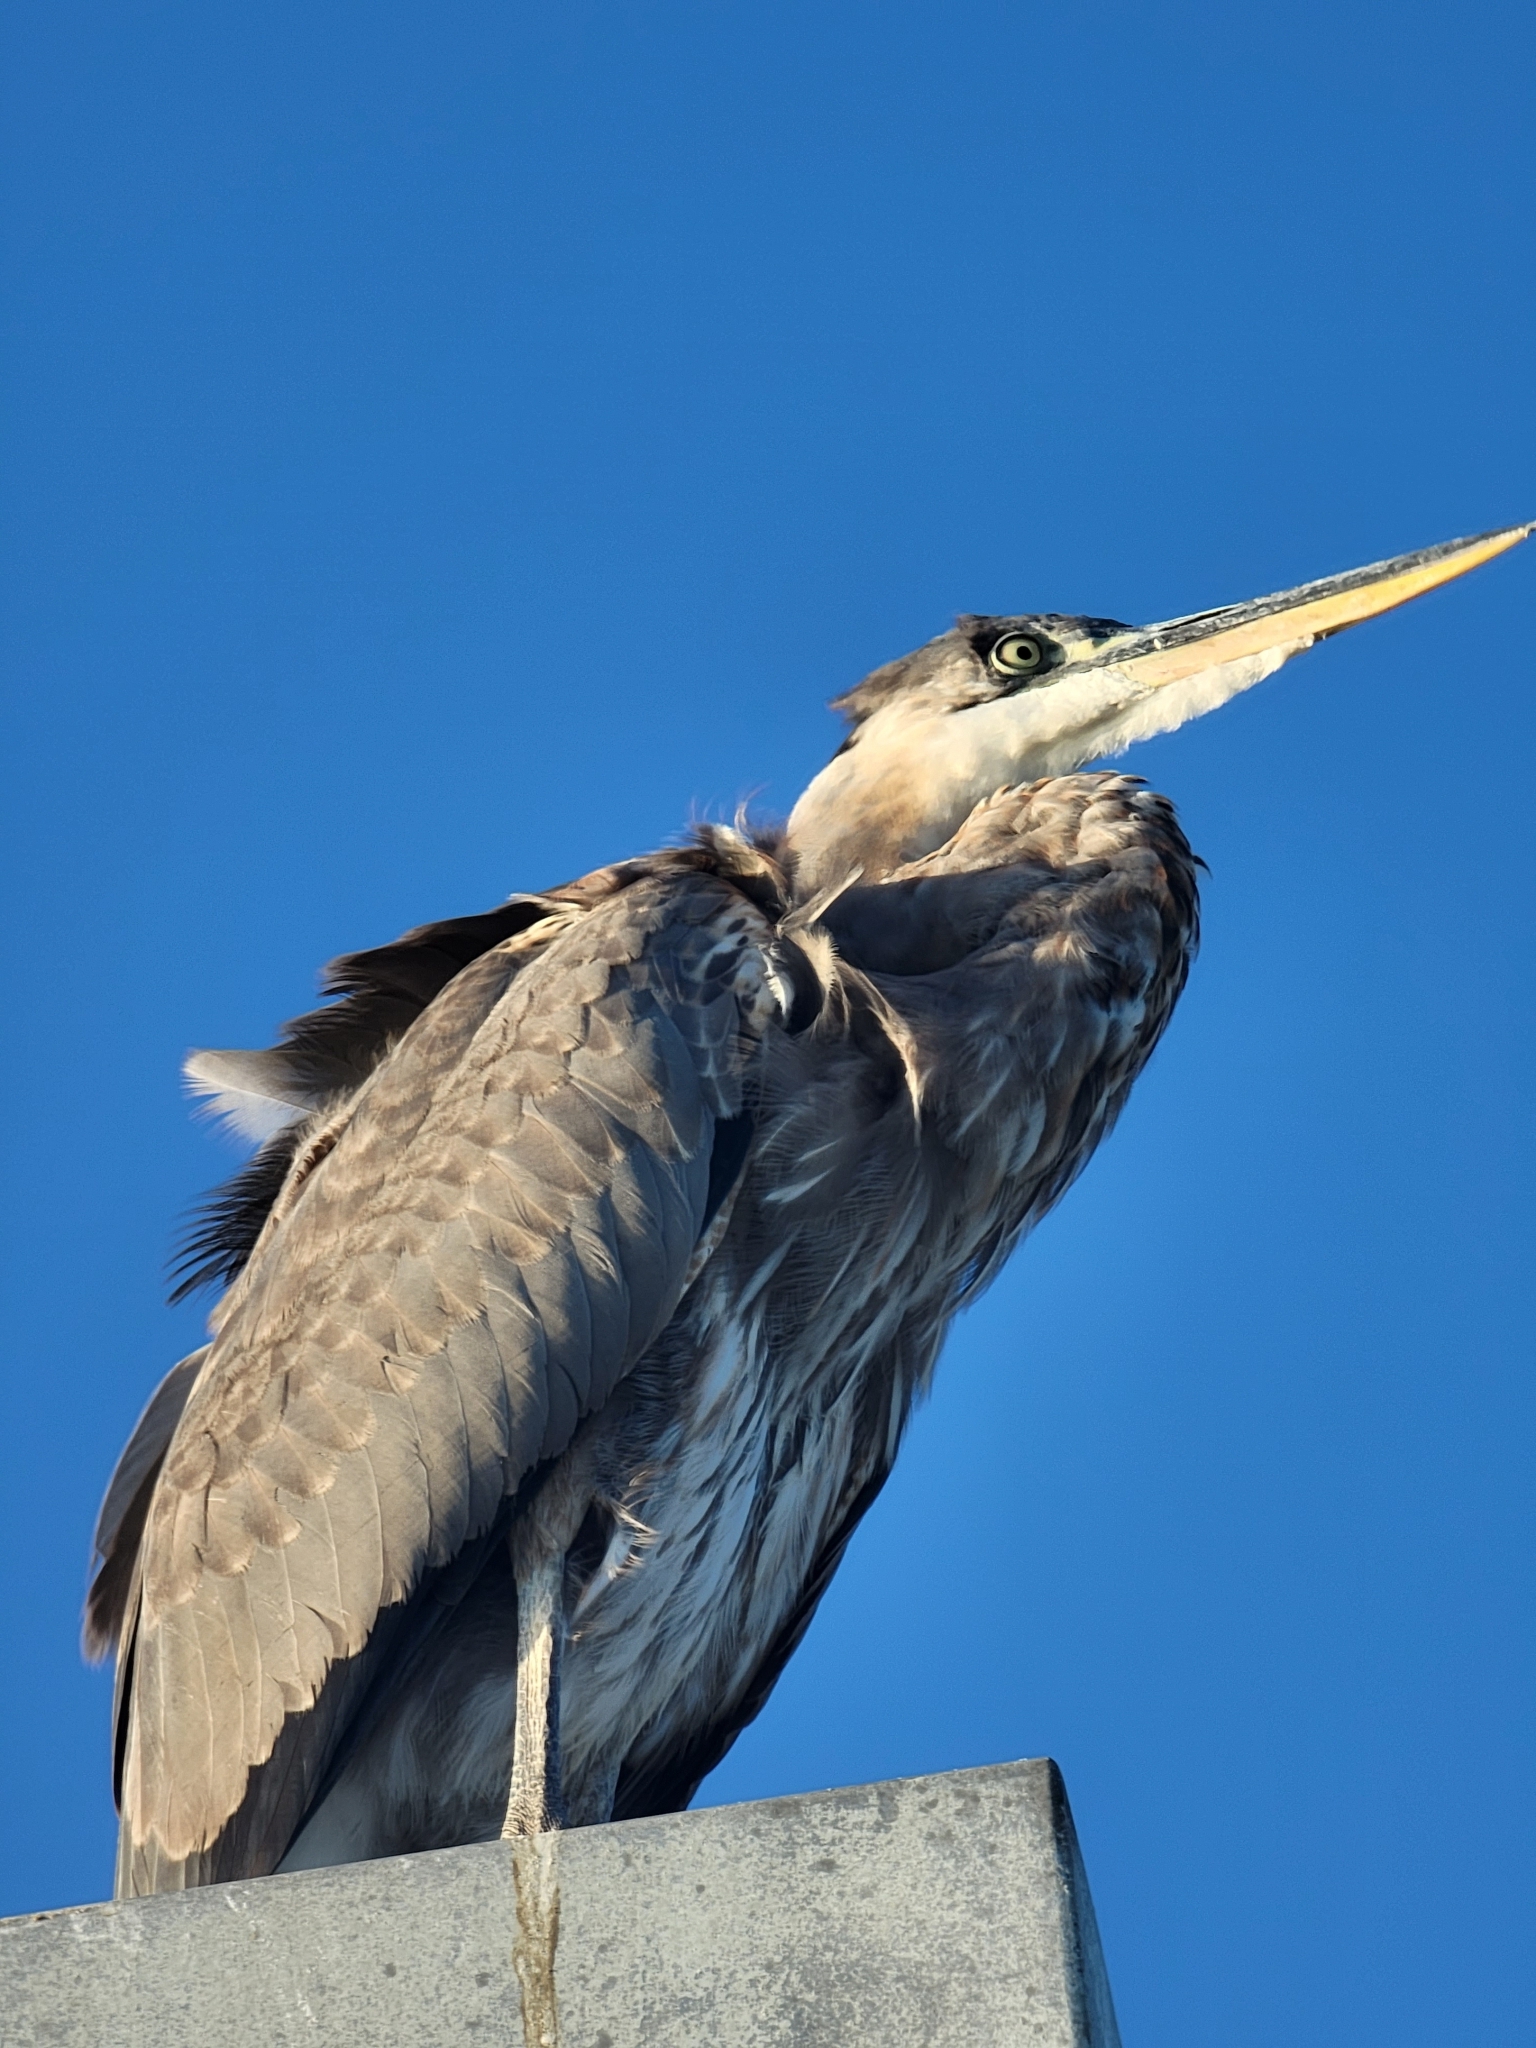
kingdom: Animalia
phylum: Chordata
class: Aves
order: Pelecaniformes
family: Ardeidae
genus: Ardea
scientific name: Ardea herodias
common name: Great blue heron
